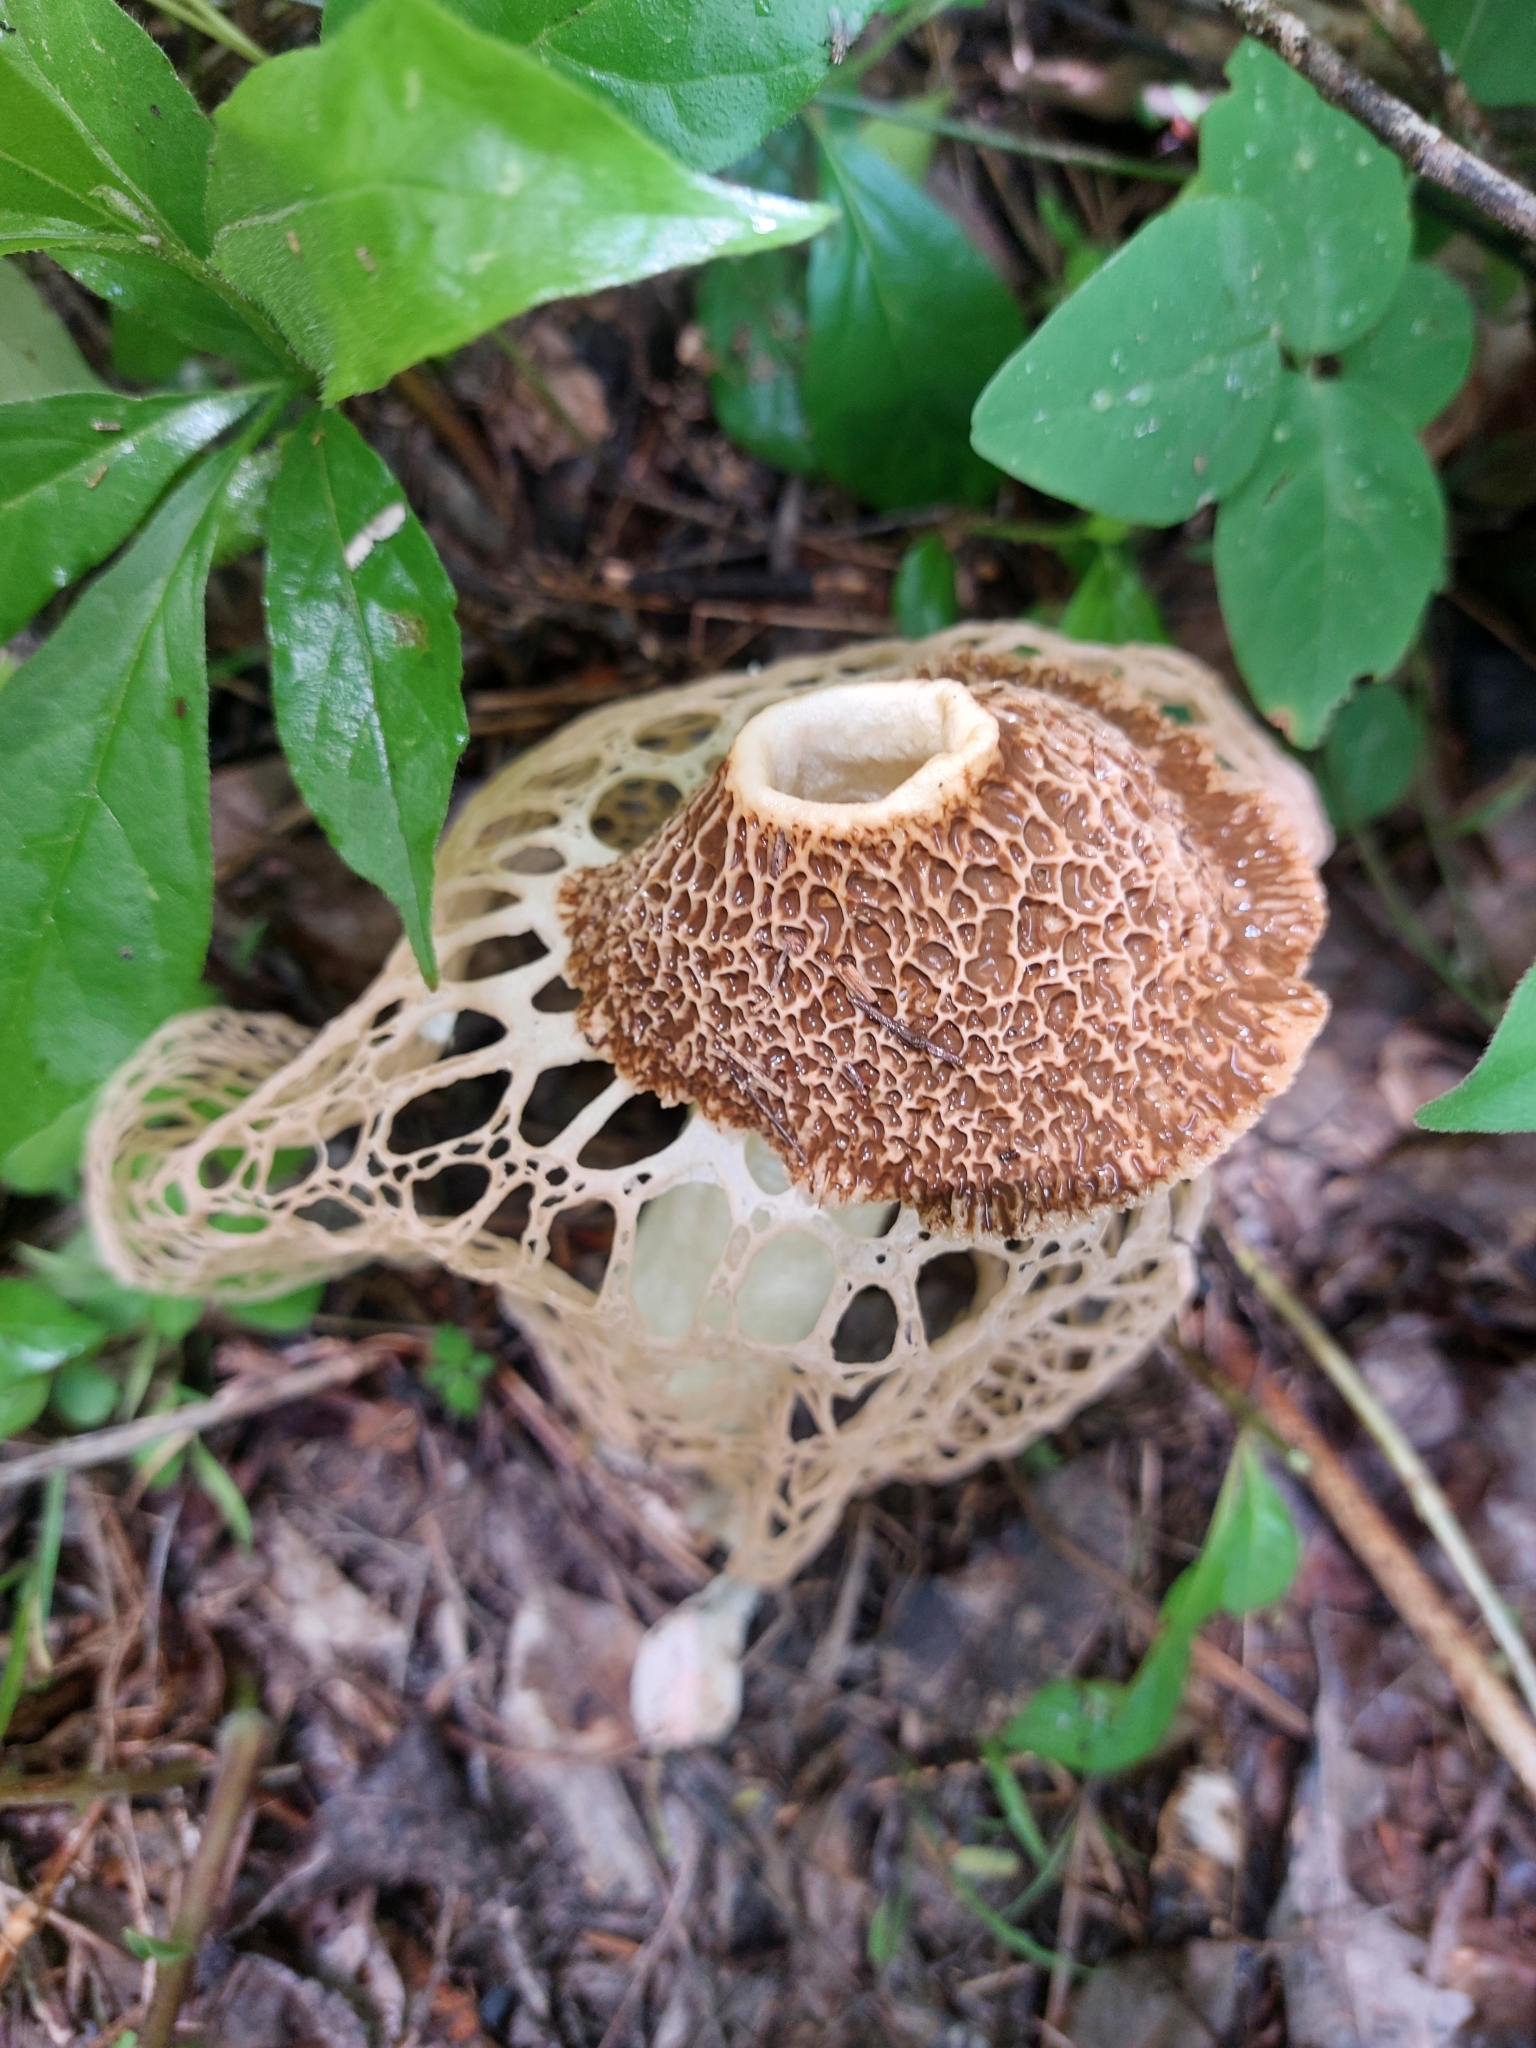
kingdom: Fungi
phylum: Basidiomycota
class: Agaricomycetes
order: Phallales
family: Phallaceae
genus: Phallus
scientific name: Phallus haitangensis
